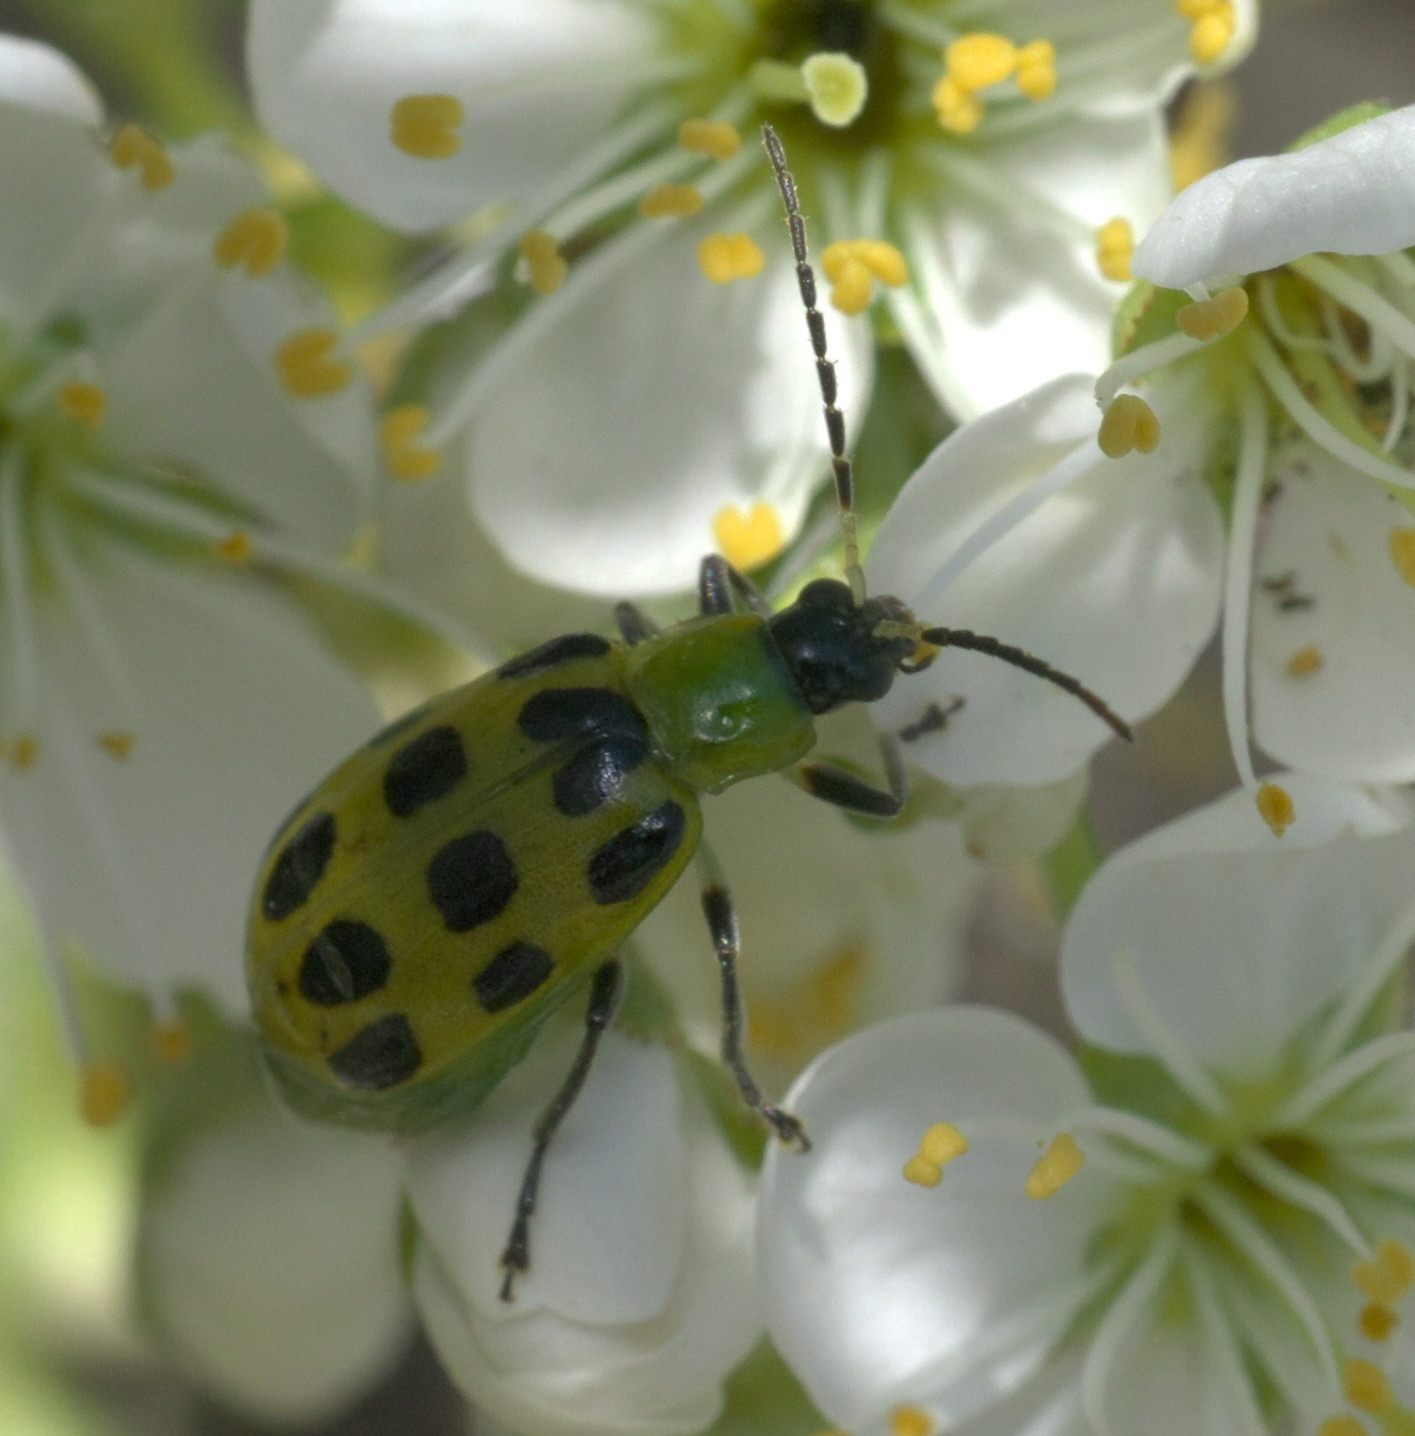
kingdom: Animalia
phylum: Arthropoda
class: Insecta
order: Coleoptera
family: Chrysomelidae
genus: Diabrotica
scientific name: Diabrotica undecimpunctata
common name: Spotted cucumber beetle
